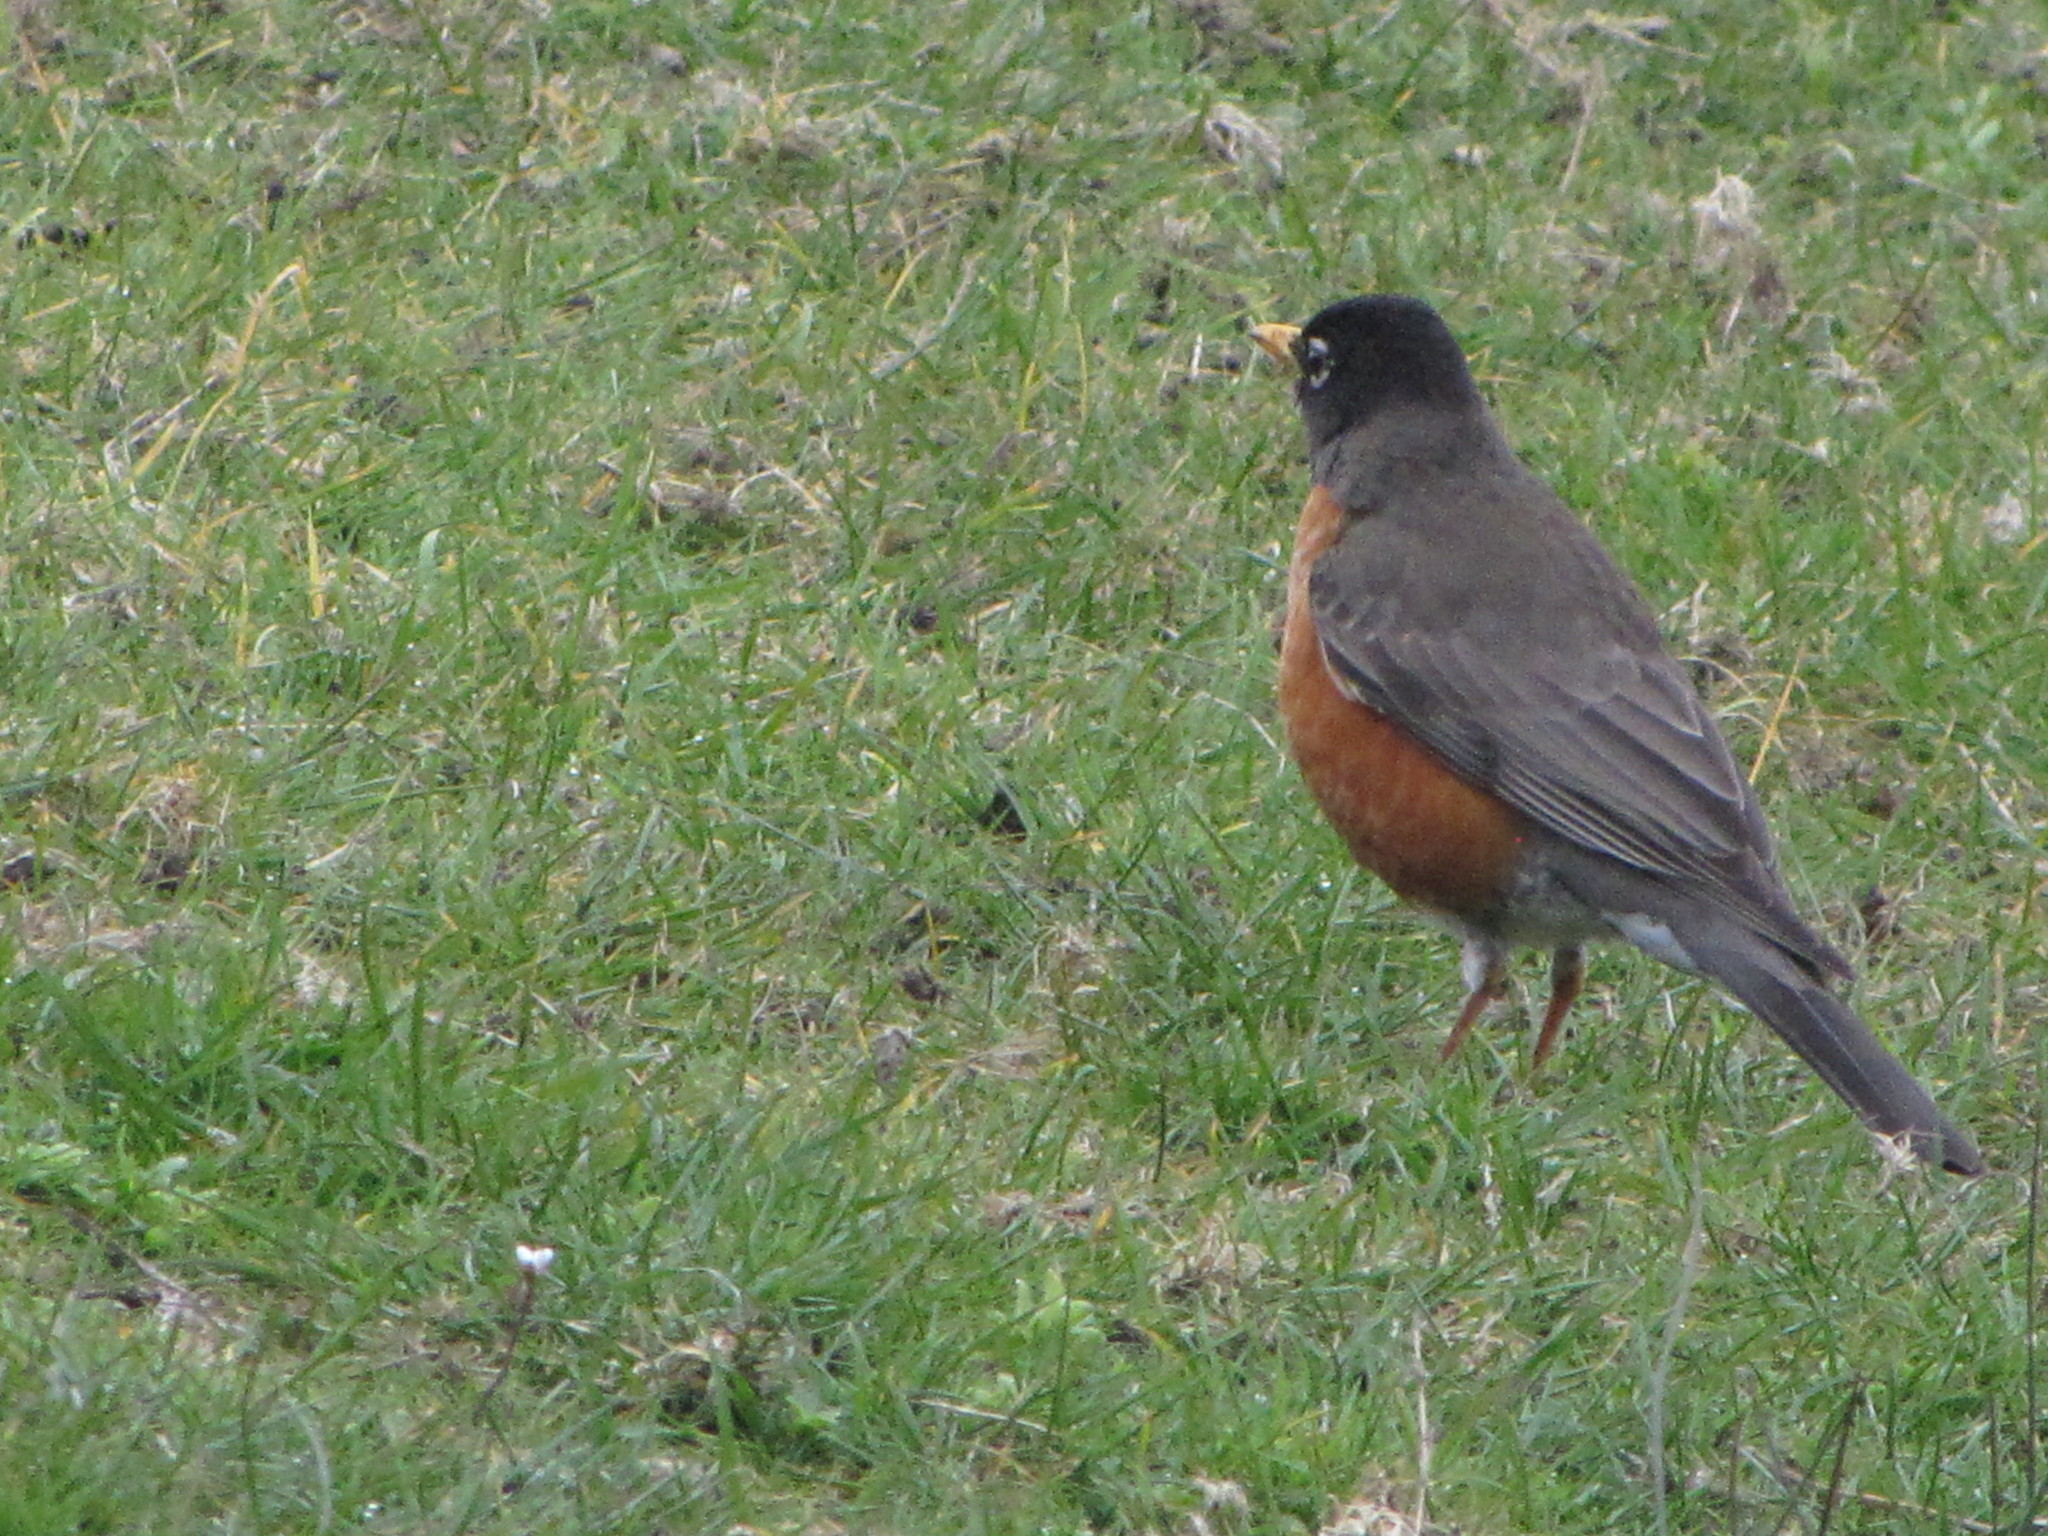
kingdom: Animalia
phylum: Chordata
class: Aves
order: Passeriformes
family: Turdidae
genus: Turdus
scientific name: Turdus migratorius
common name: American robin
